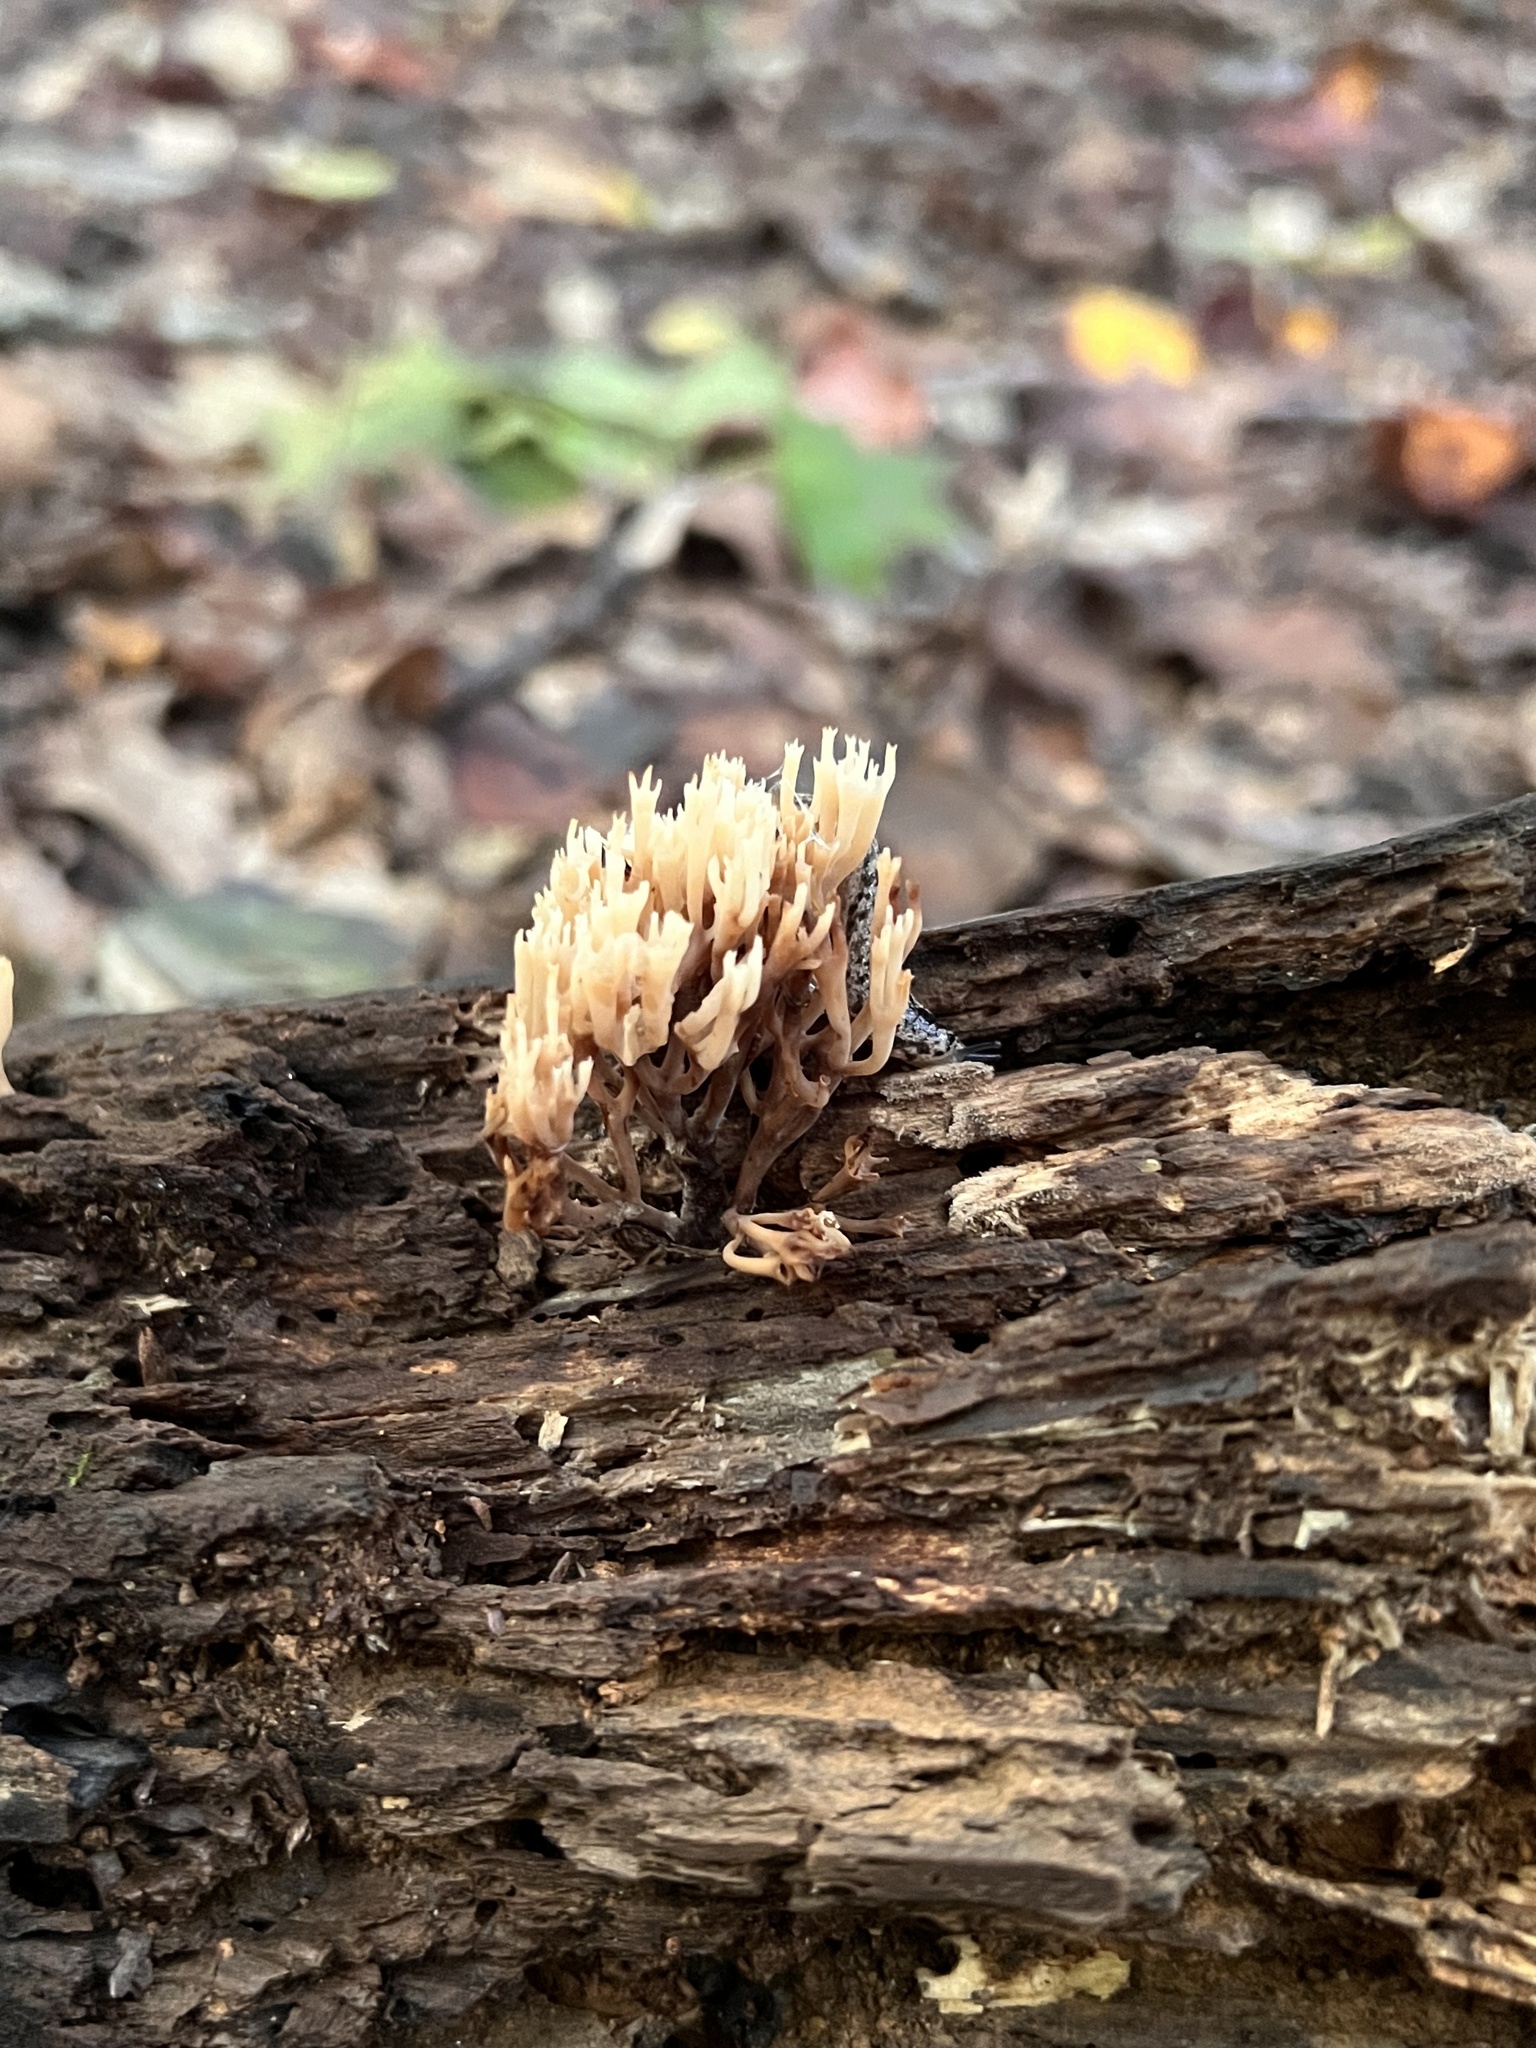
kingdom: Fungi
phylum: Basidiomycota
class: Agaricomycetes
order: Russulales
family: Auriscalpiaceae
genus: Artomyces
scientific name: Artomyces pyxidatus
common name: Crown-tipped coral fungus
